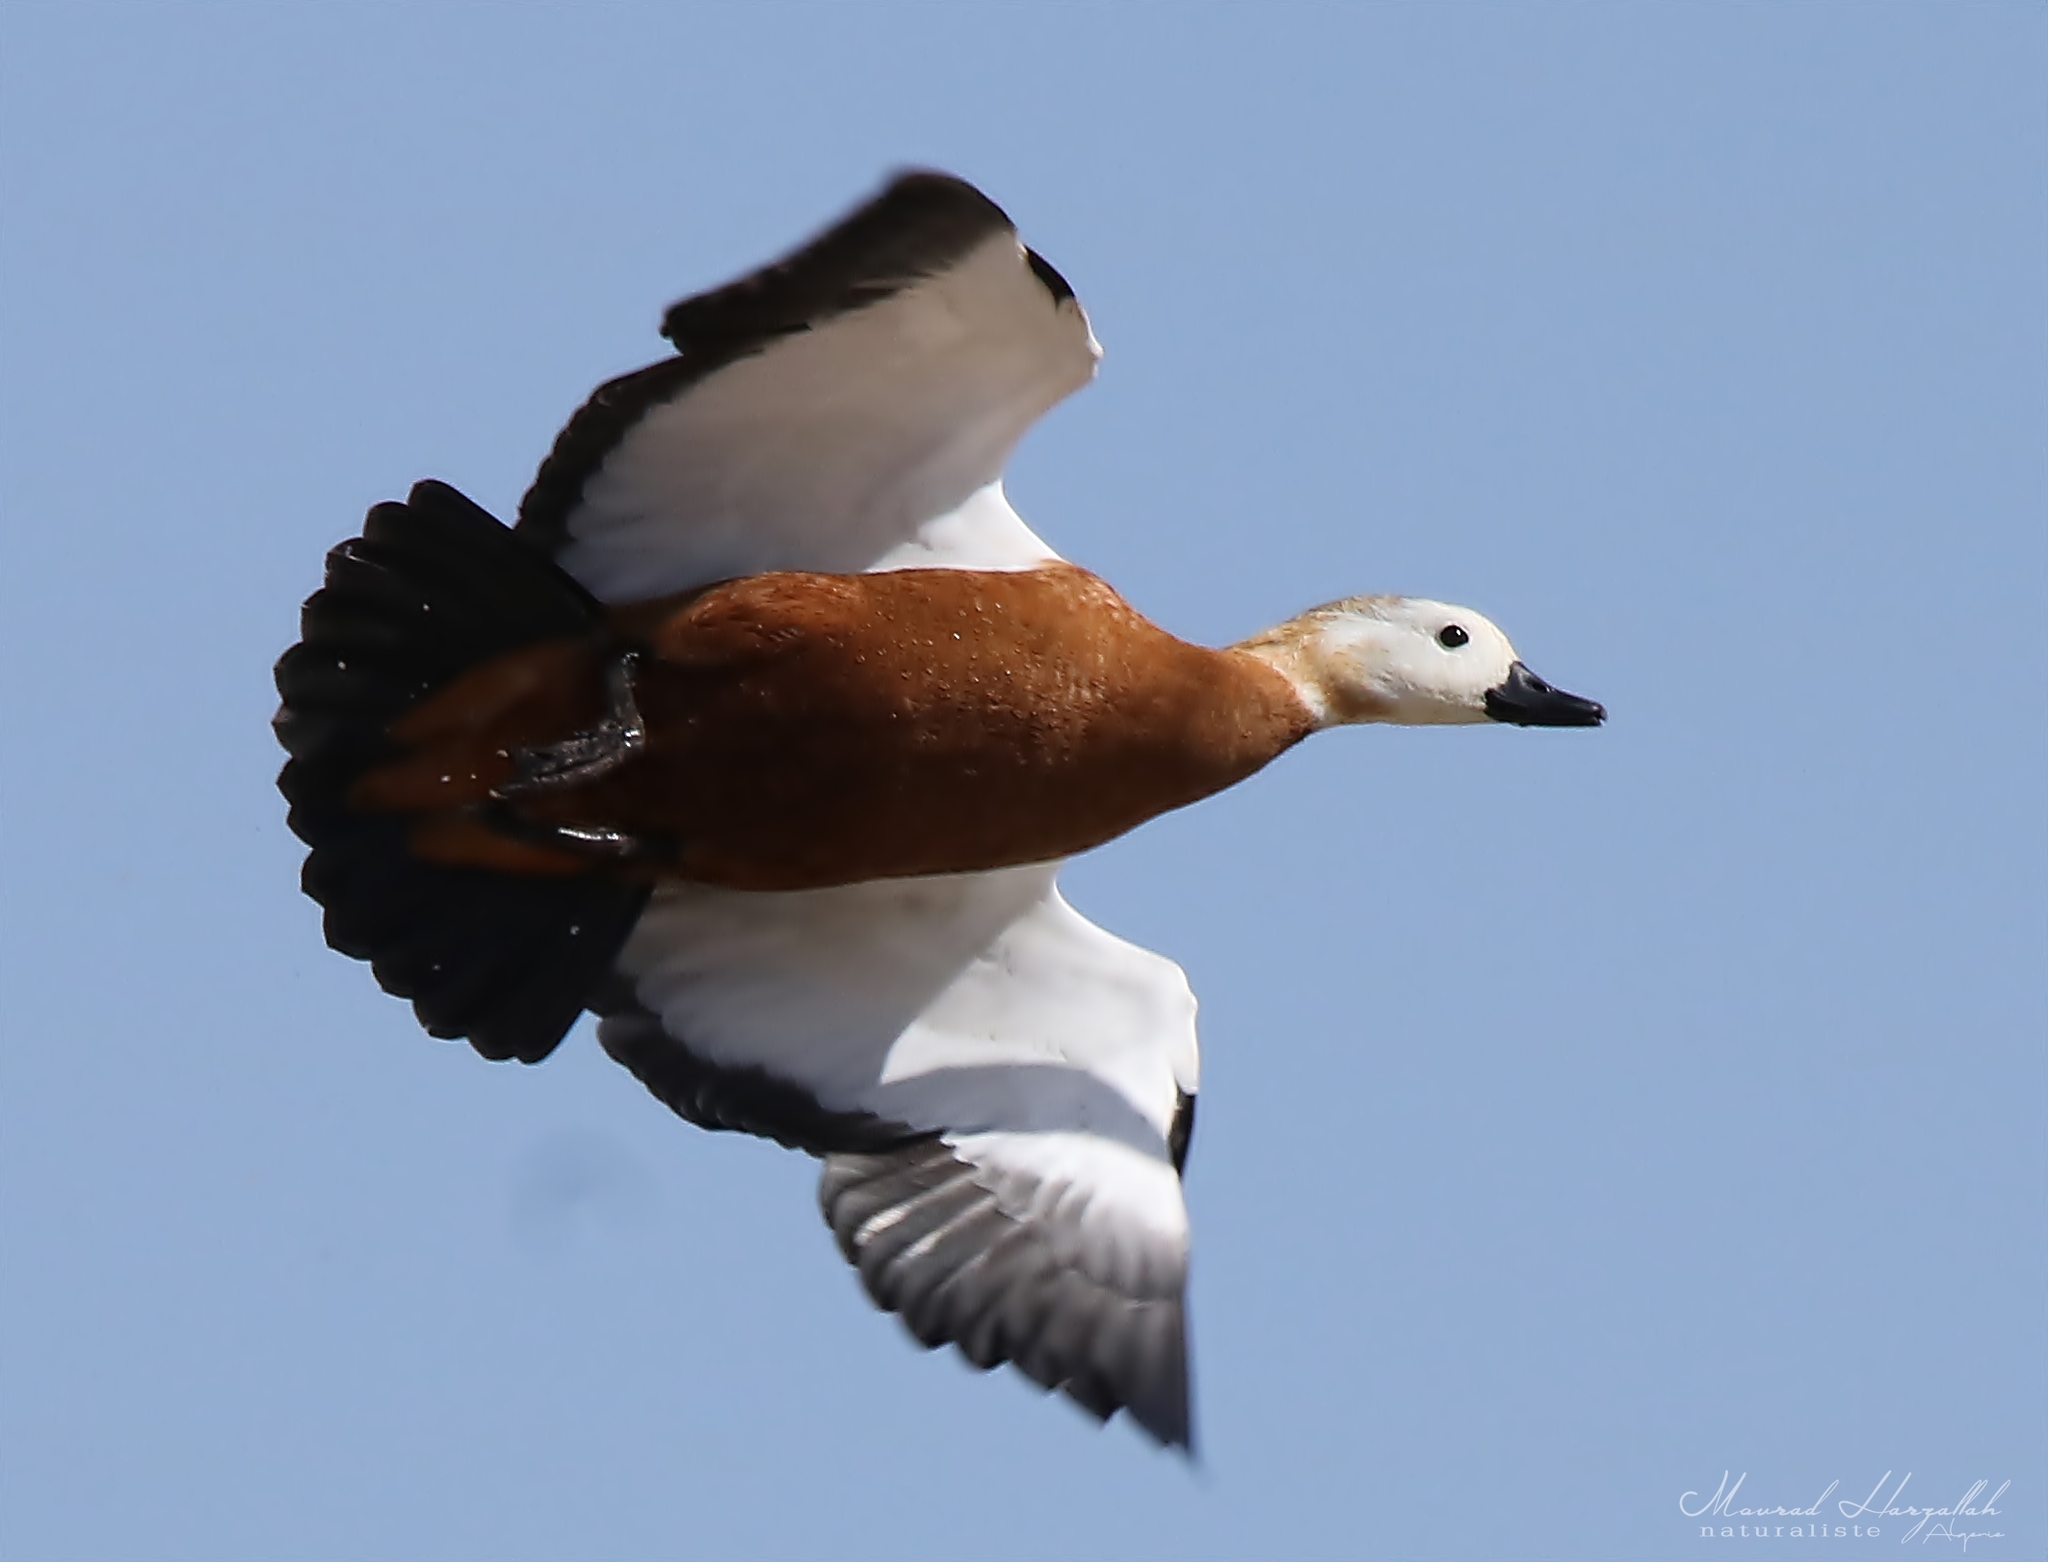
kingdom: Animalia
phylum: Chordata
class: Aves
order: Anseriformes
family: Anatidae
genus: Tadorna
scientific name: Tadorna ferruginea
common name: Ruddy shelduck
